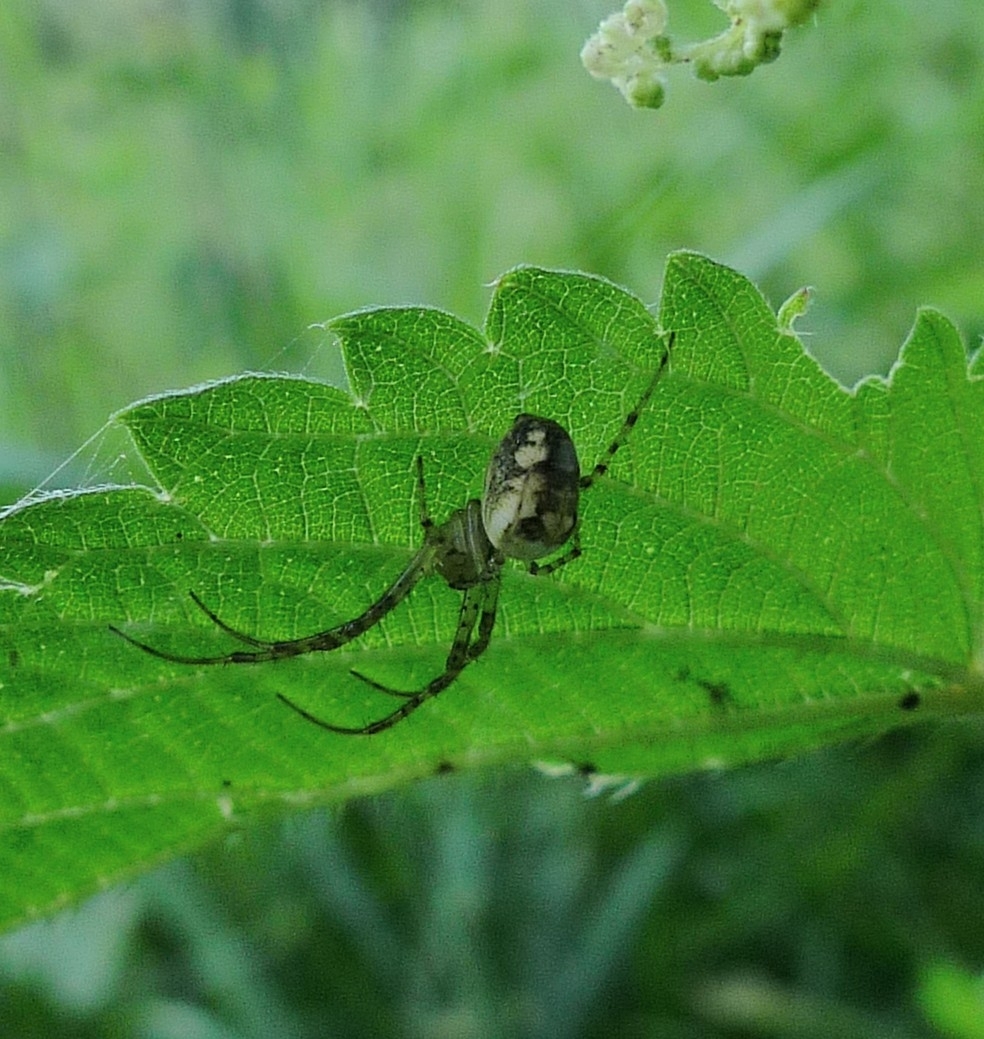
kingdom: Animalia
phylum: Arthropoda
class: Arachnida
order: Araneae
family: Tetragnathidae
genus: Metellina
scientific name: Metellina segmentata
